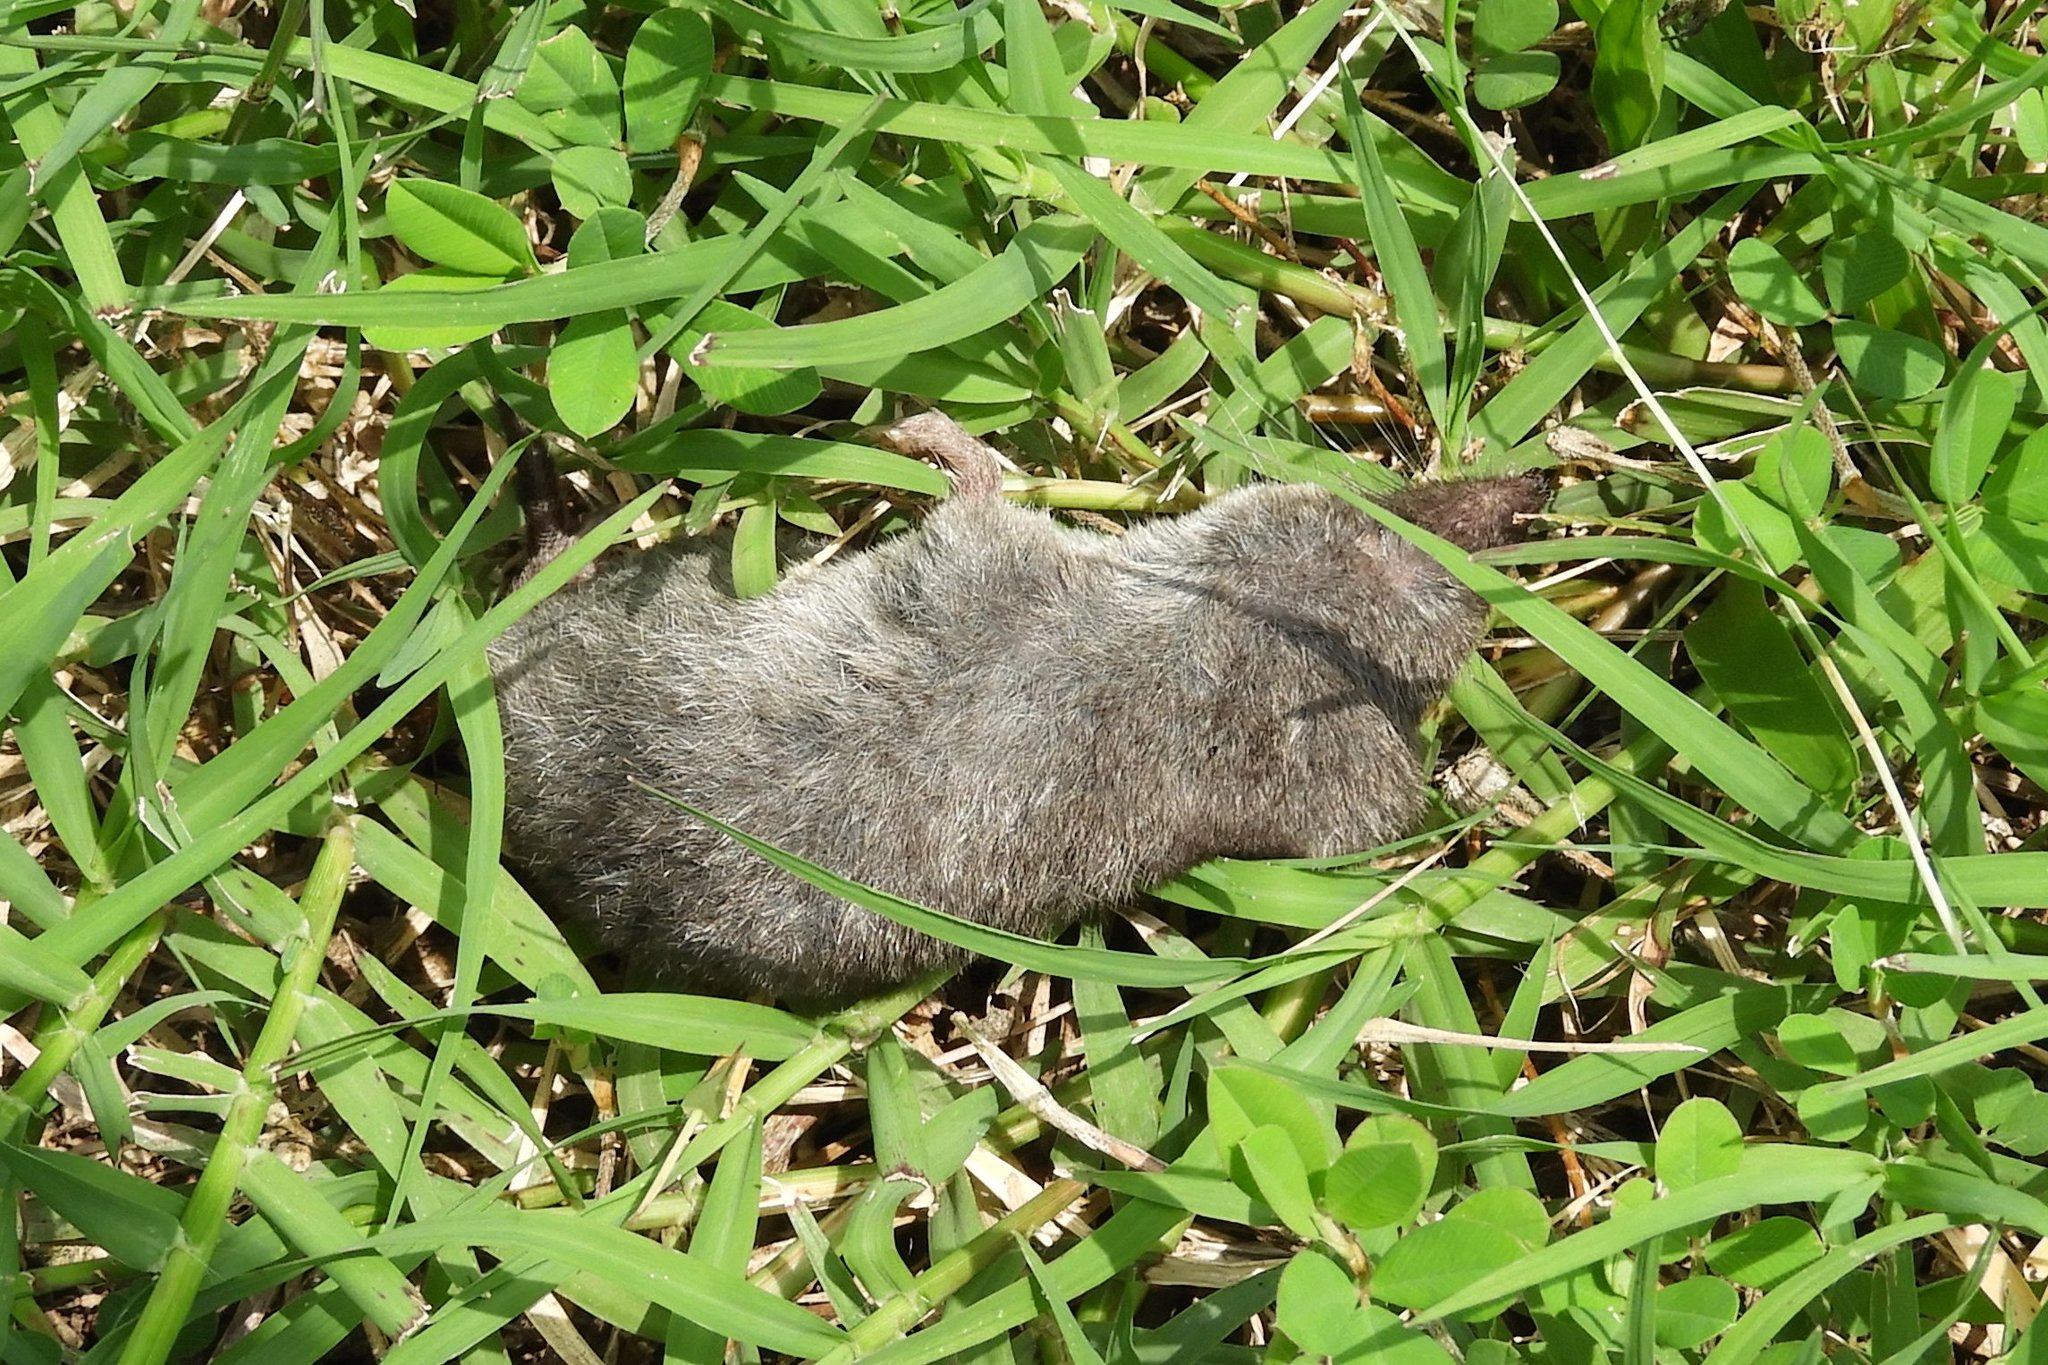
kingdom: Animalia
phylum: Chordata
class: Mammalia
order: Soricomorpha
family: Soricidae
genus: Blarina
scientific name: Blarina brevicauda
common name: Northern short-tailed shrew
